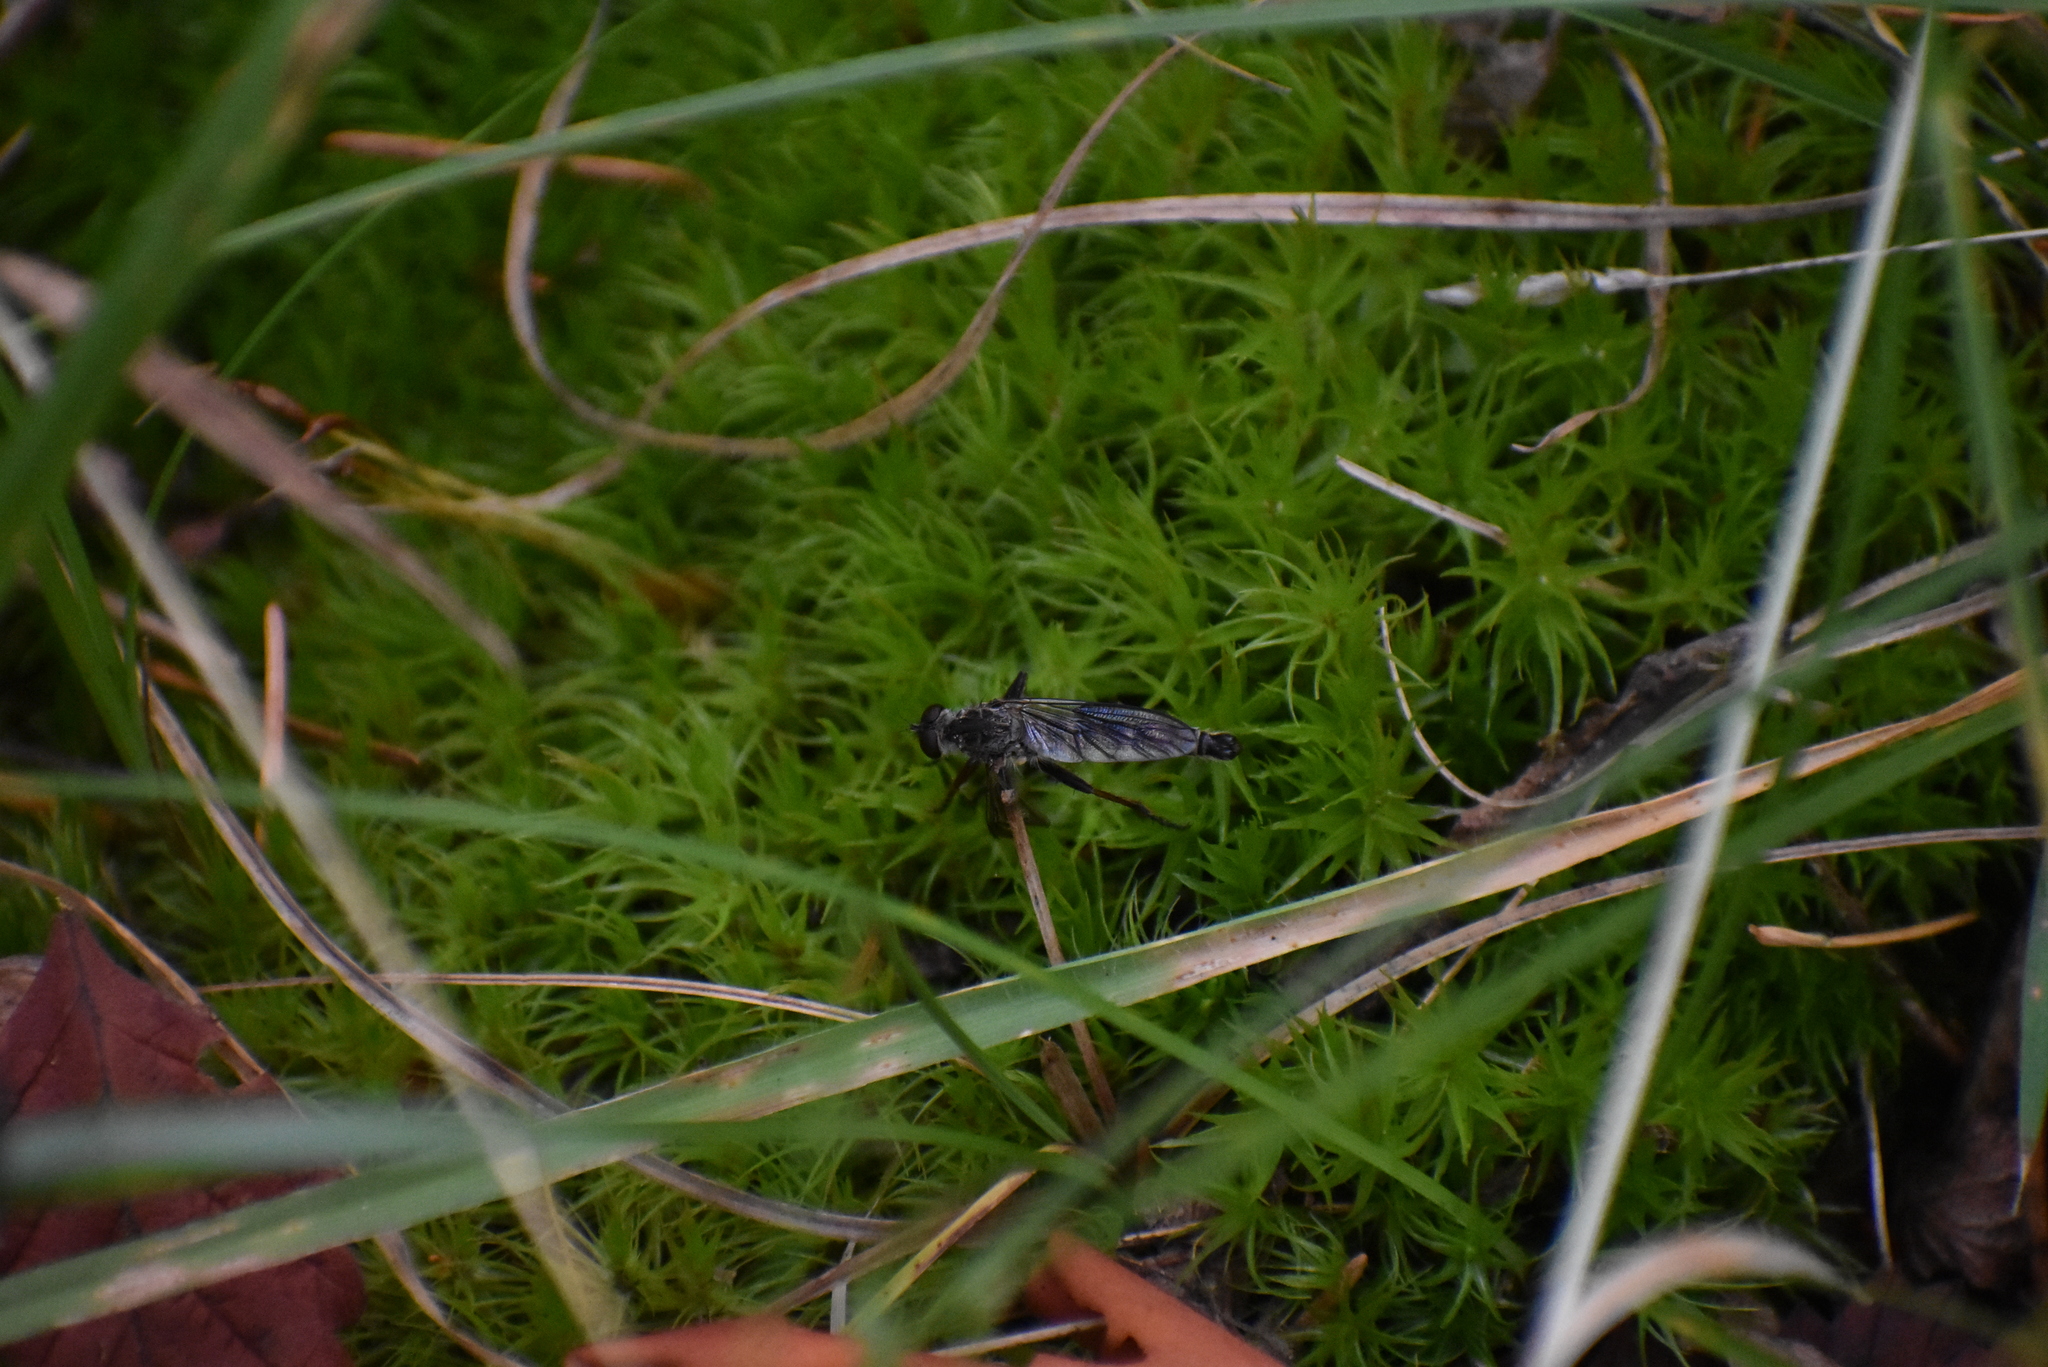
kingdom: Animalia
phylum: Arthropoda
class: Insecta
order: Diptera
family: Asilidae
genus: Neomochtherus
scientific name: Neomochtherus willistoni
